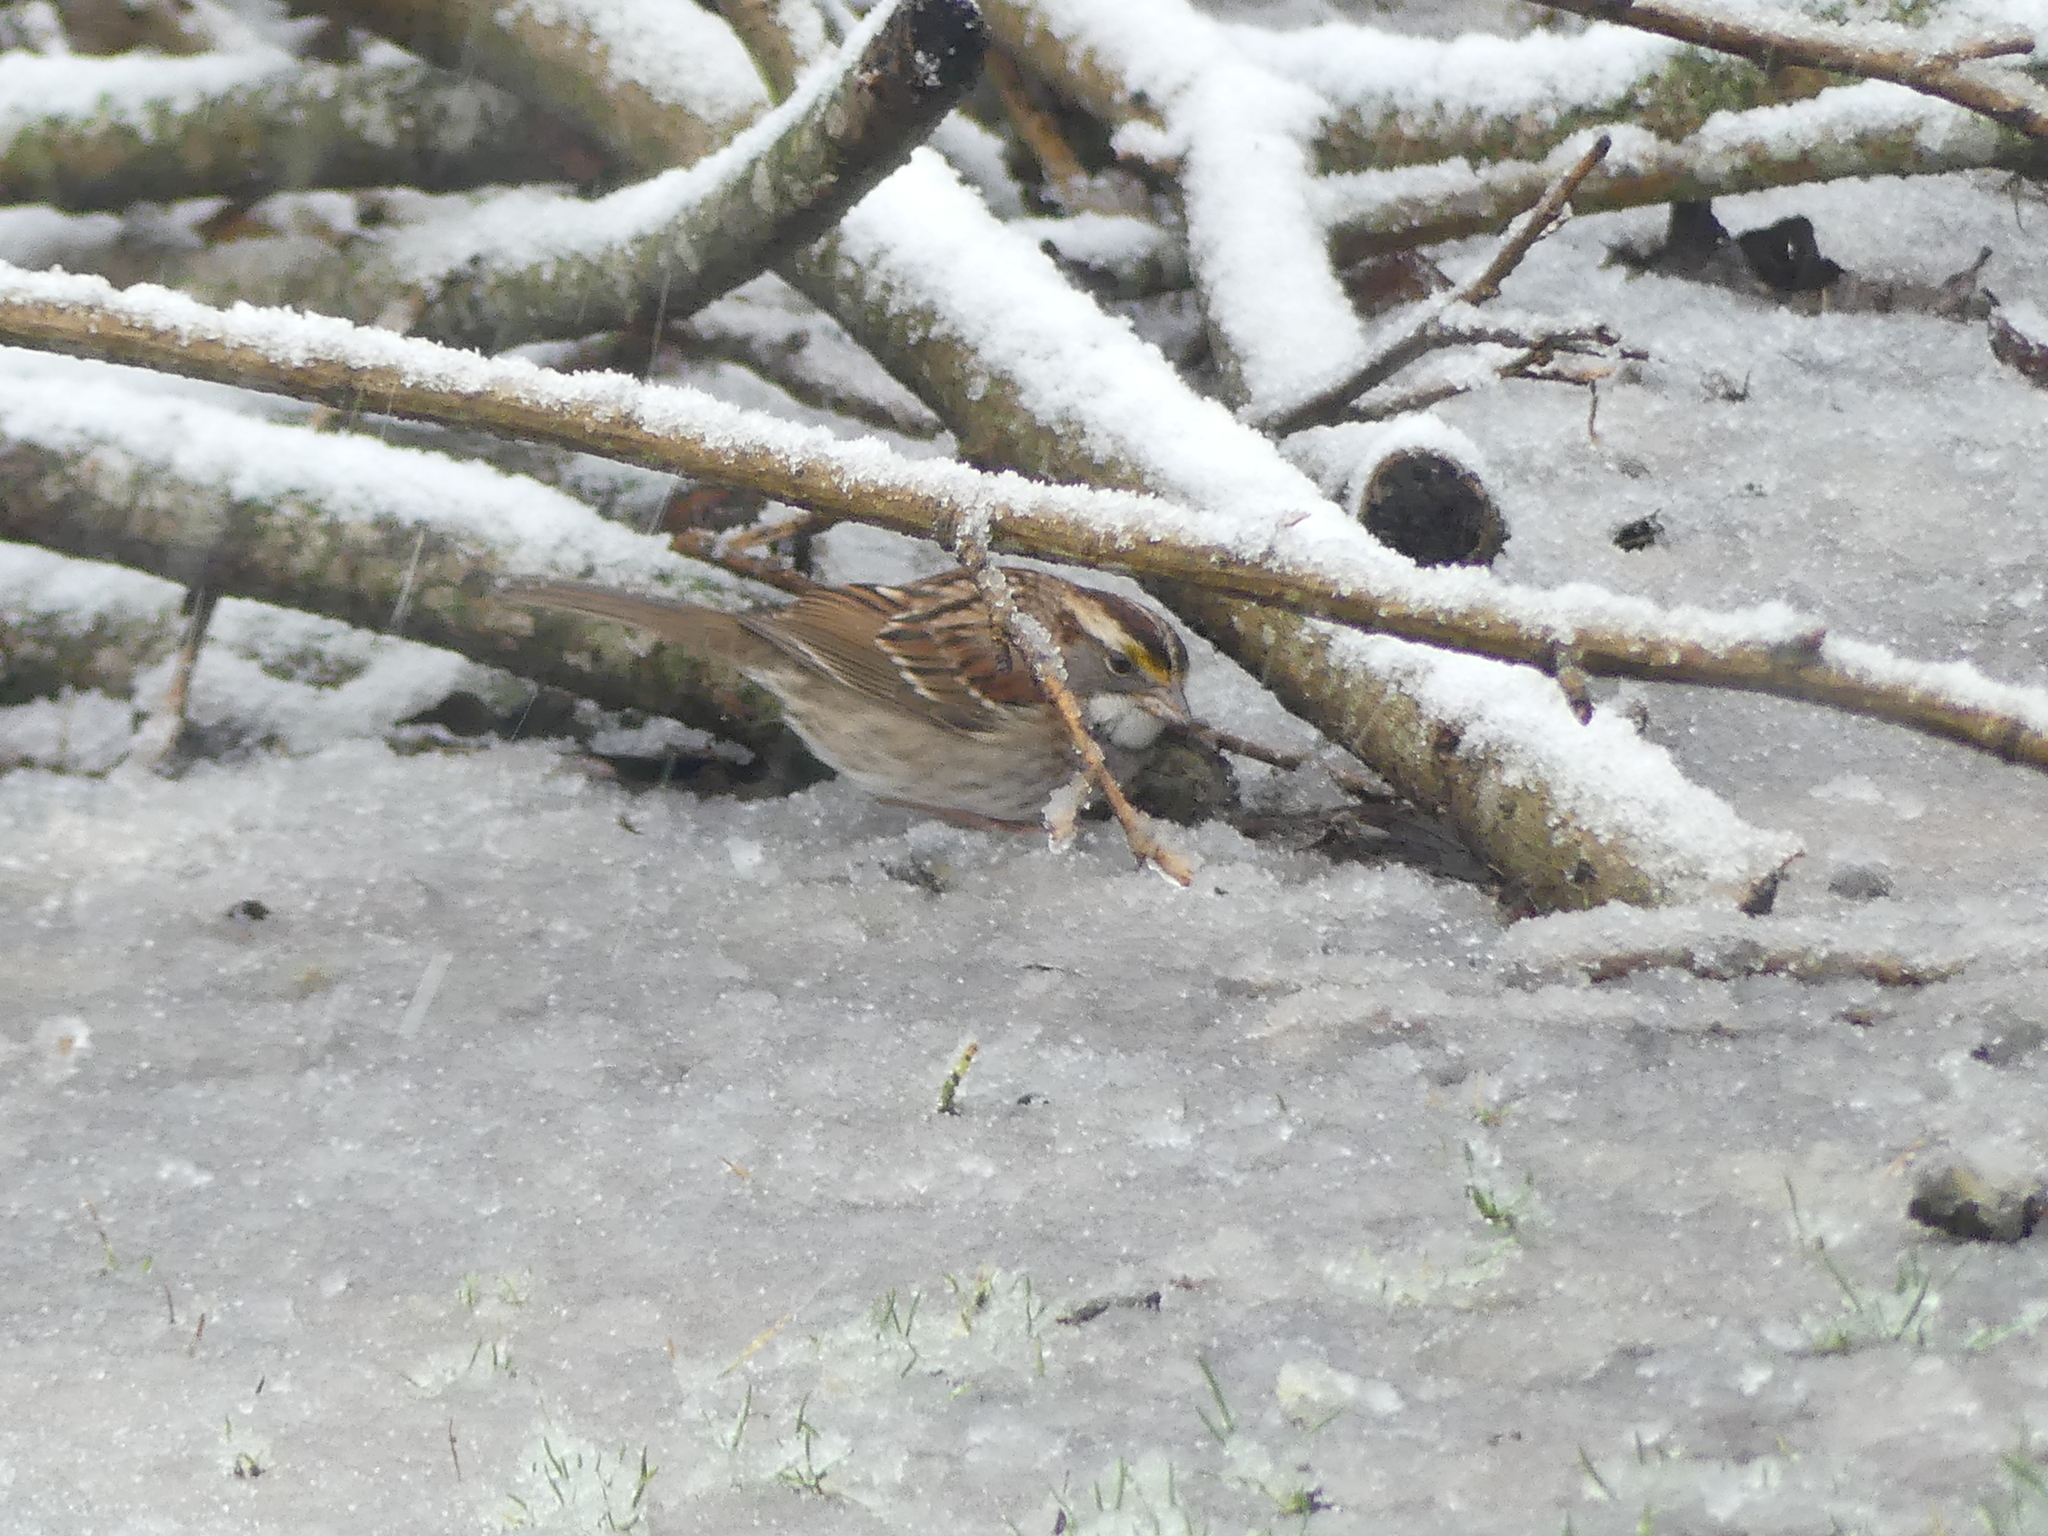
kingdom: Animalia
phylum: Chordata
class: Aves
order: Passeriformes
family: Passerellidae
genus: Zonotrichia
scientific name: Zonotrichia albicollis
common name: White-throated sparrow
